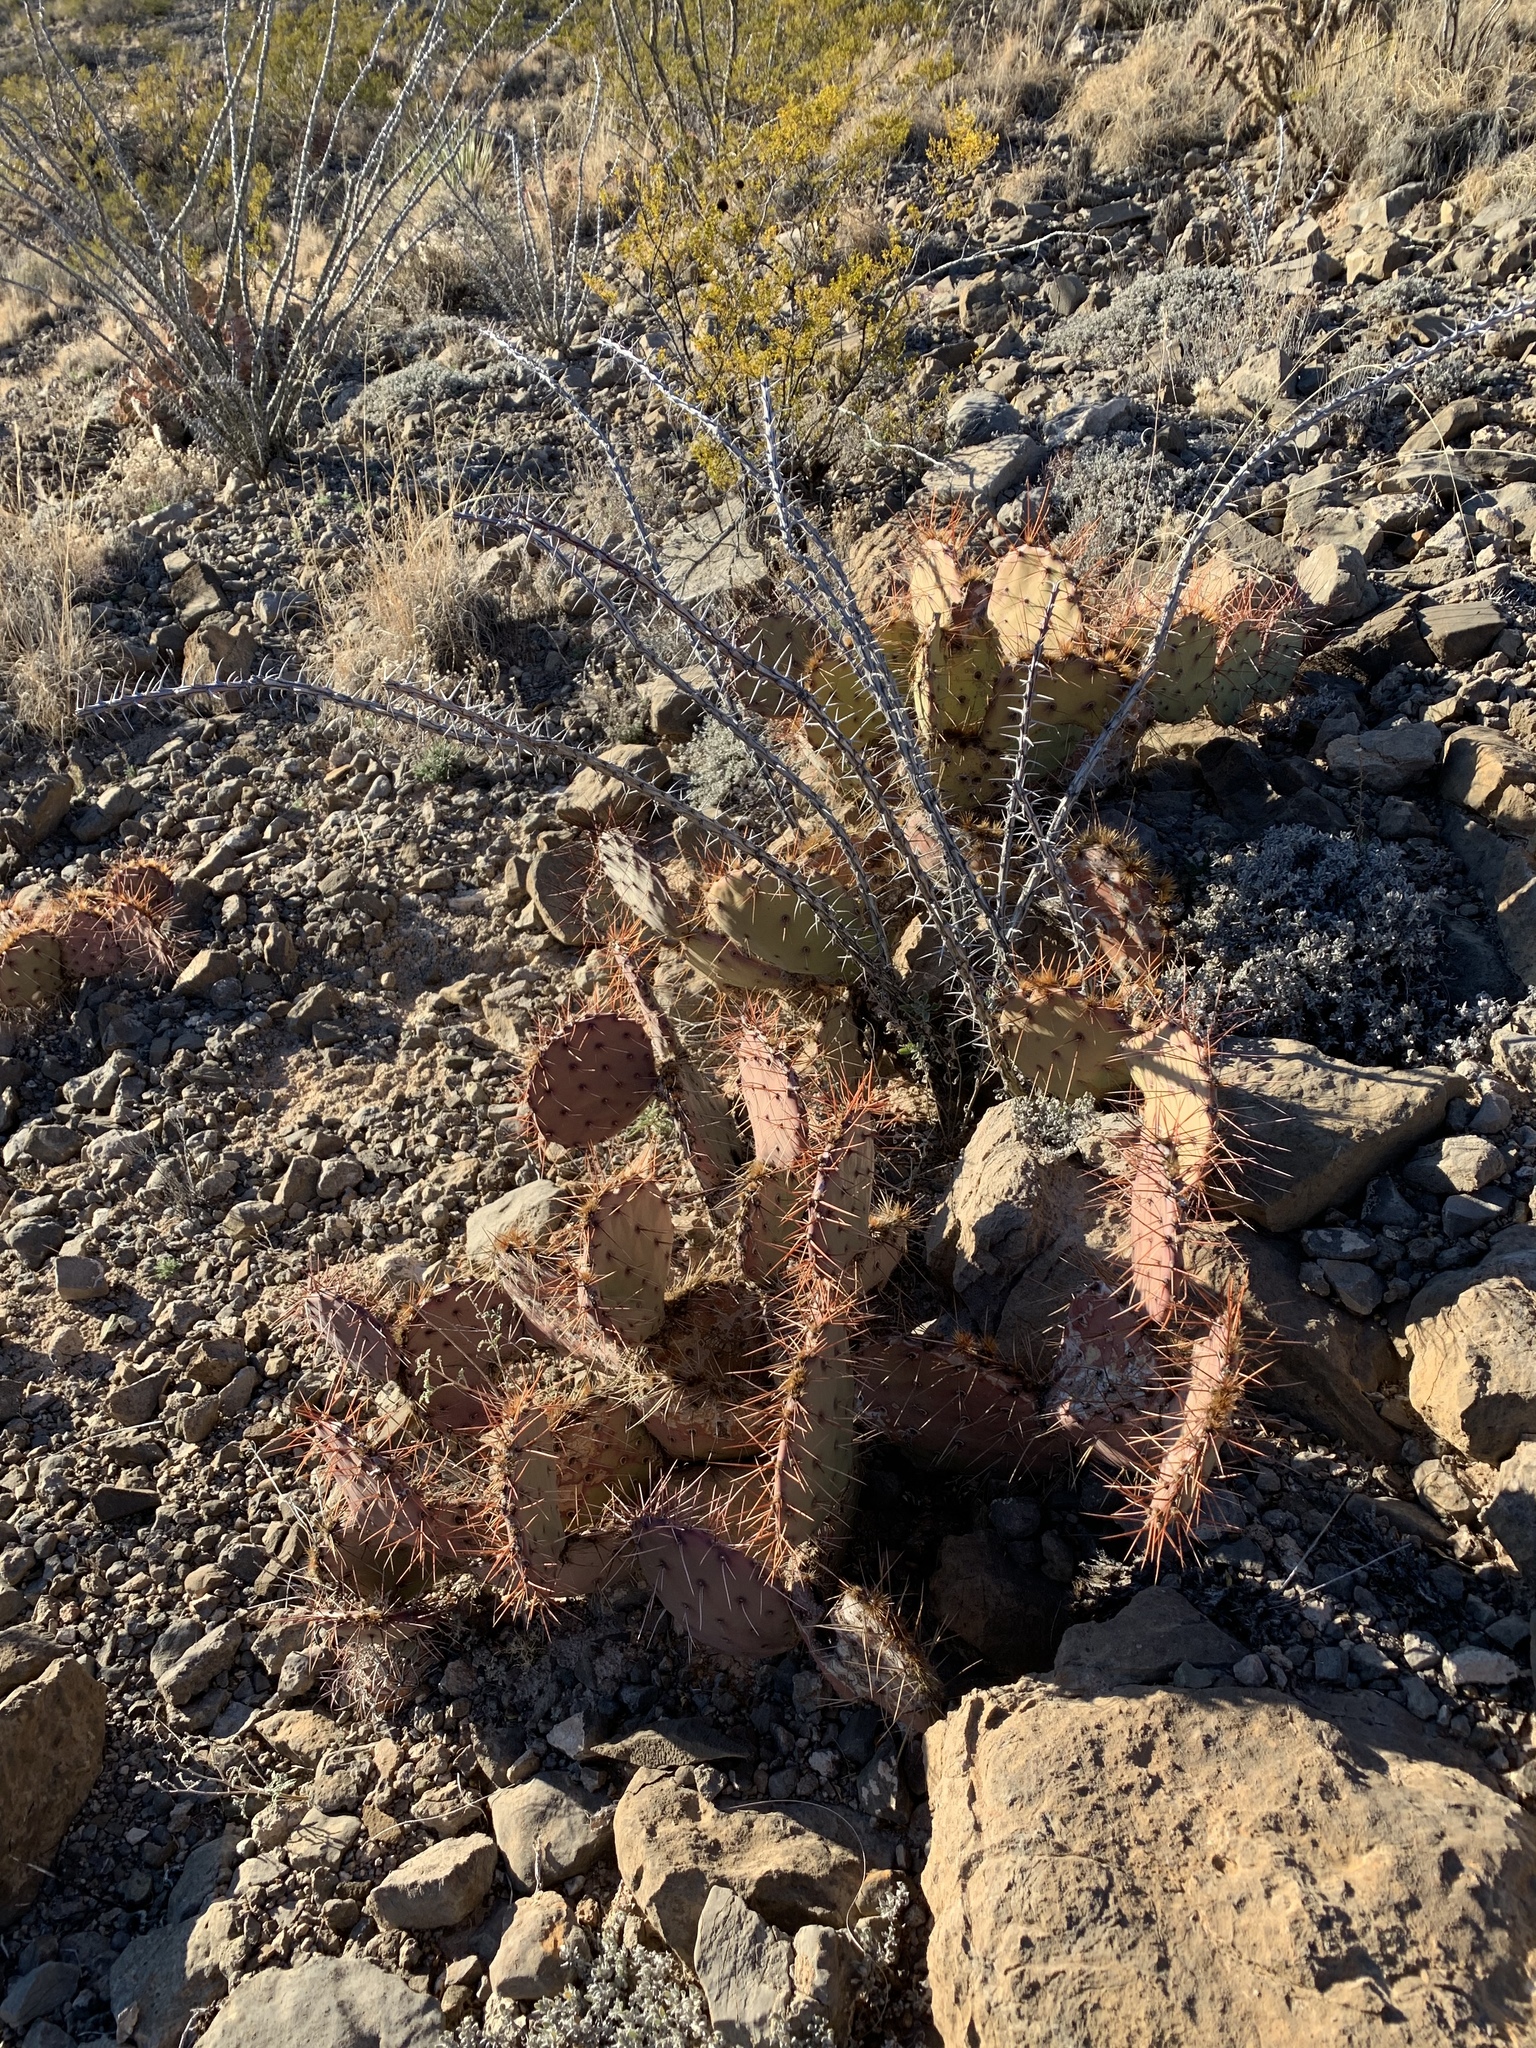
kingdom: Plantae
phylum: Tracheophyta
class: Magnoliopsida
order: Ericales
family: Fouquieriaceae
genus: Fouquieria
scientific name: Fouquieria splendens
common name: Vine-cactus
